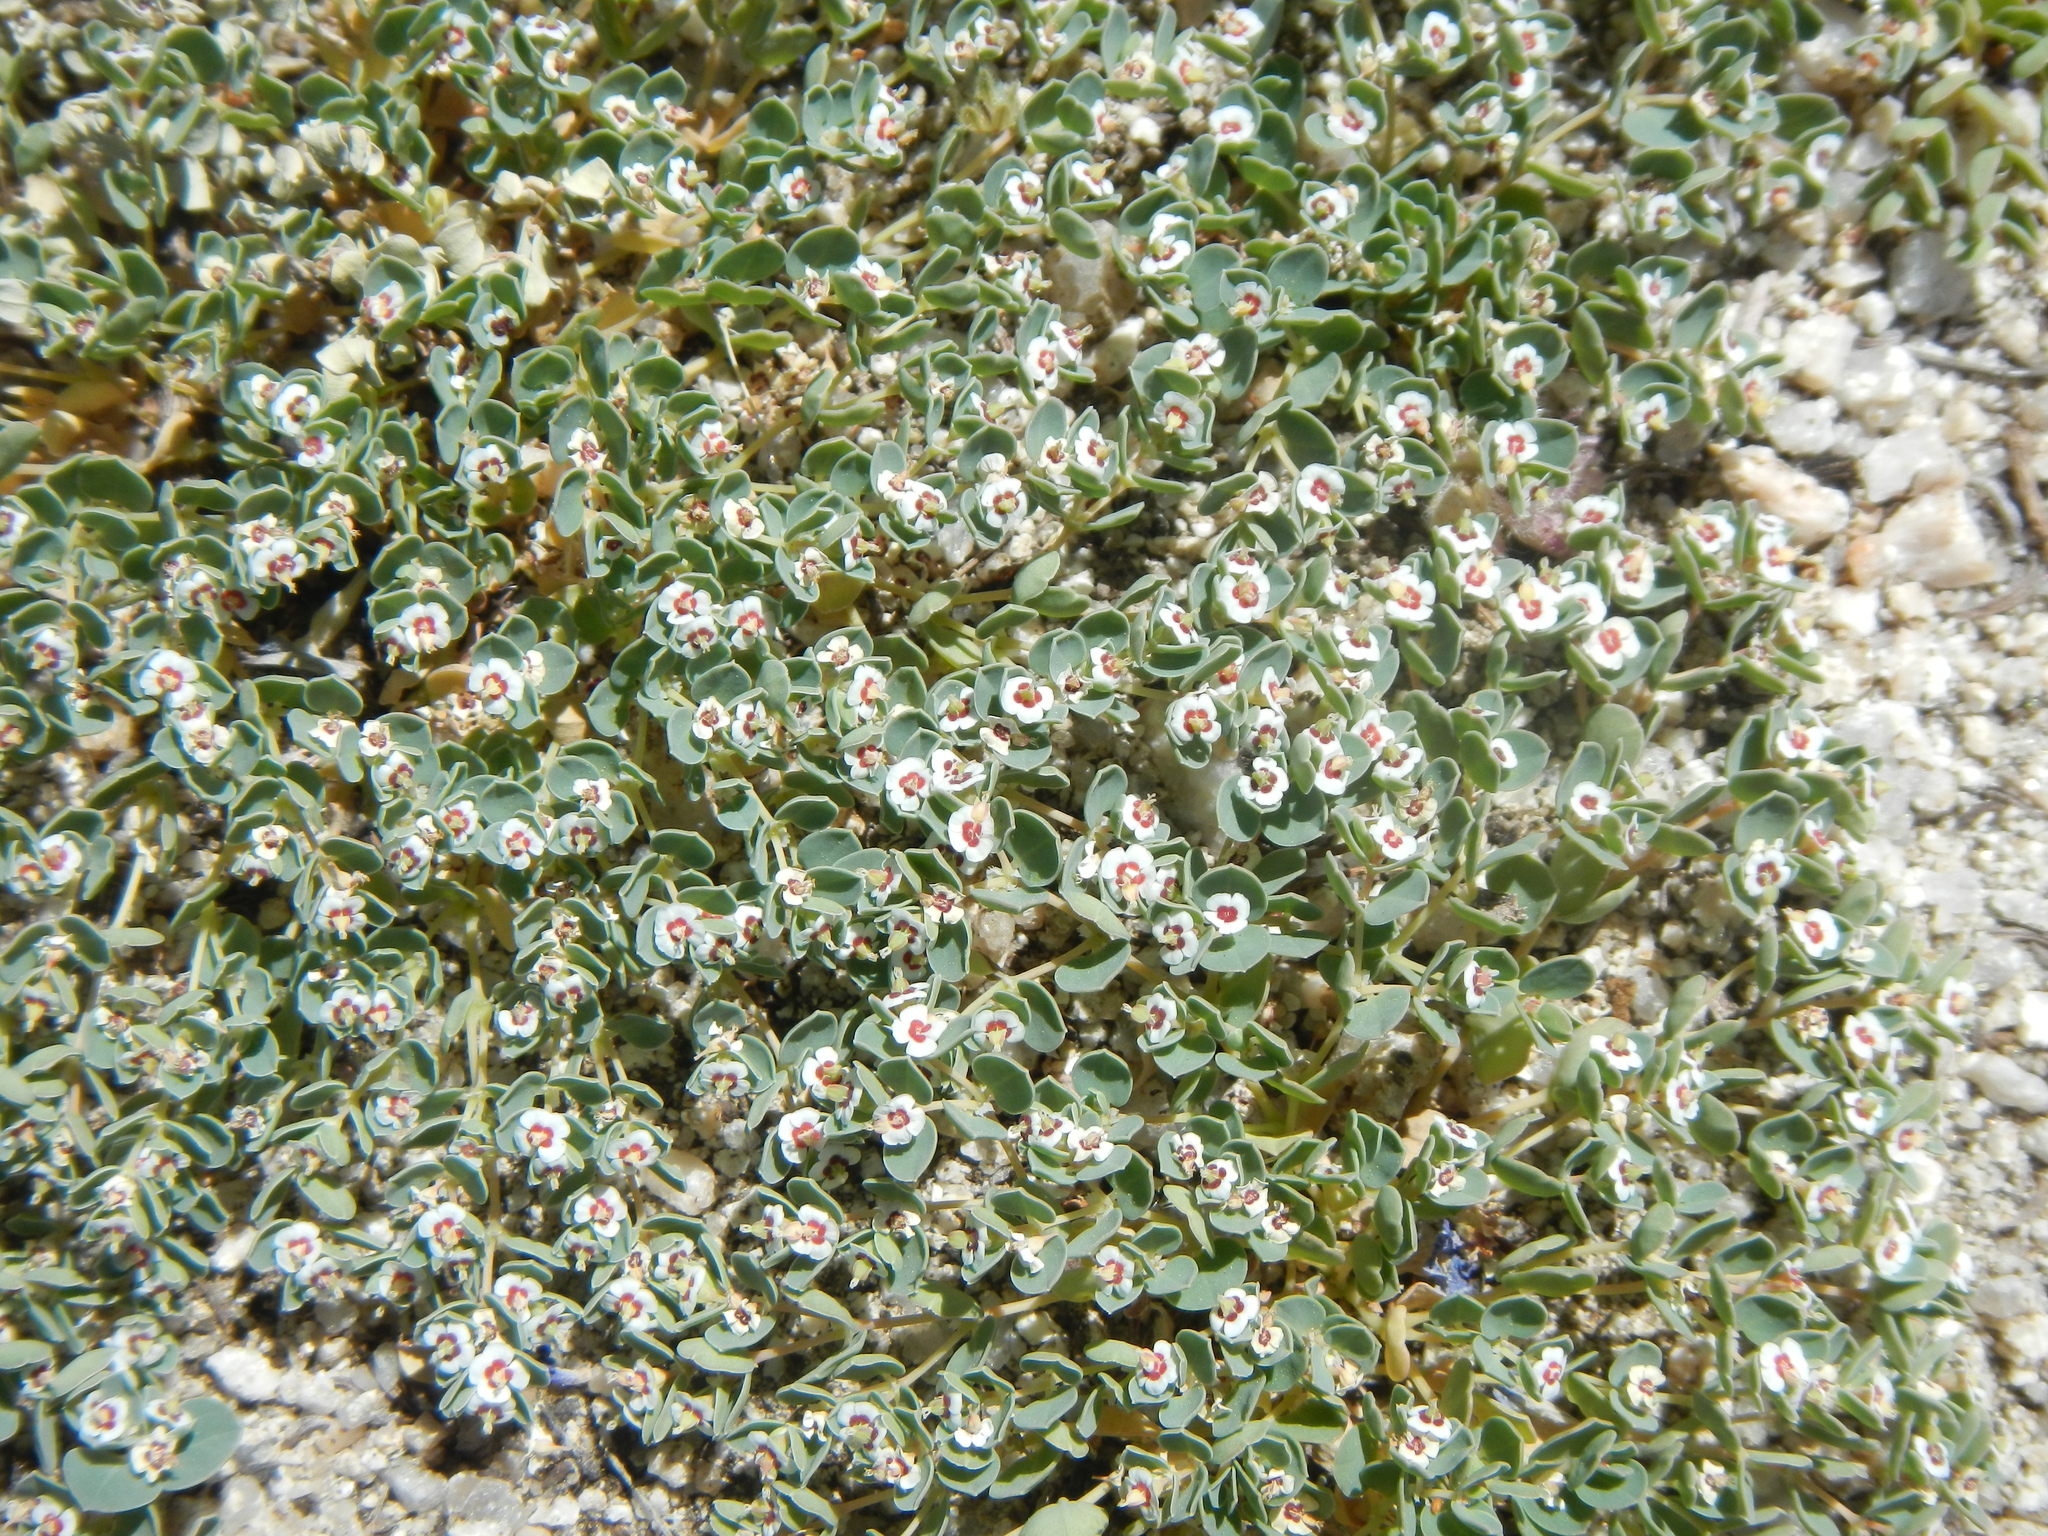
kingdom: Plantae
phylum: Tracheophyta
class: Magnoliopsida
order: Malpighiales
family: Euphorbiaceae
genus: Euphorbia
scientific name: Euphorbia albomarginata
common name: Whitemargin sandmat
